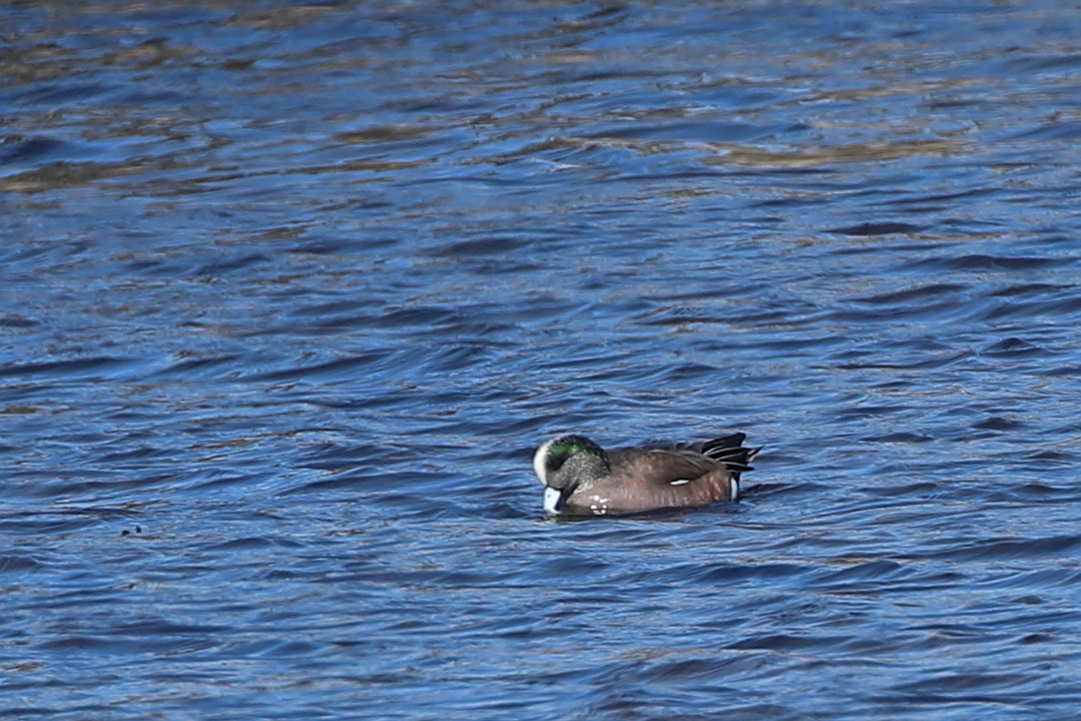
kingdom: Animalia
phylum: Chordata
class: Aves
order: Anseriformes
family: Anatidae
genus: Mareca
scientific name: Mareca americana
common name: American wigeon
